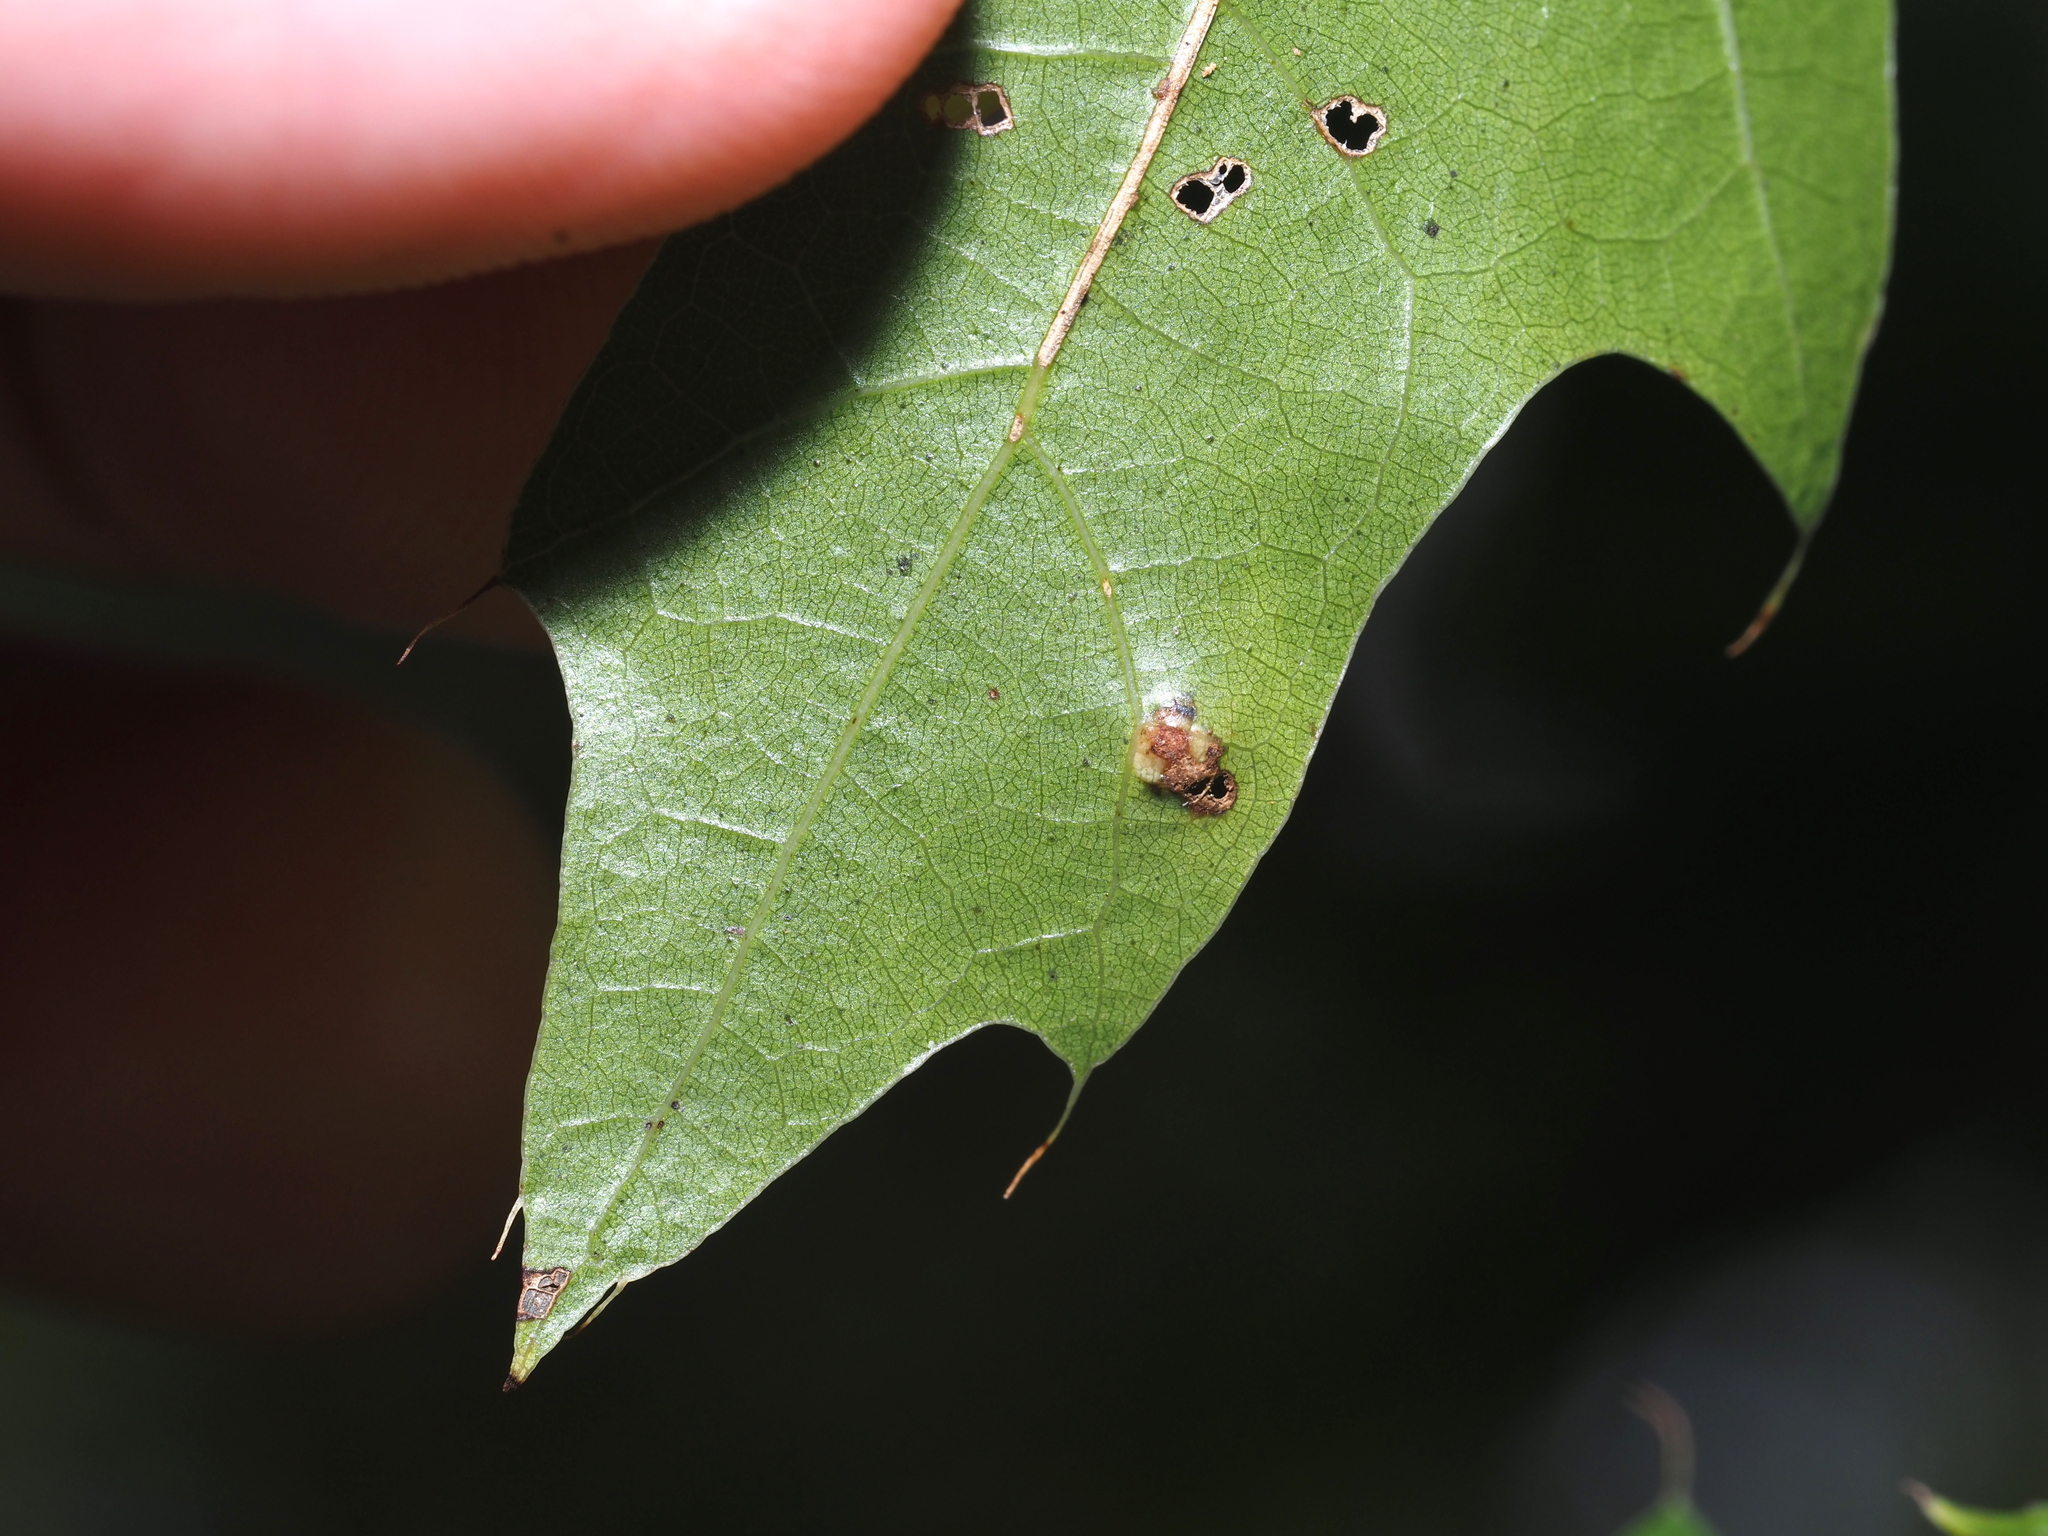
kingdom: Animalia
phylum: Arthropoda
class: Insecta
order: Diptera
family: Cecidomyiidae
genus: Polystepha
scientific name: Polystepha globosa
